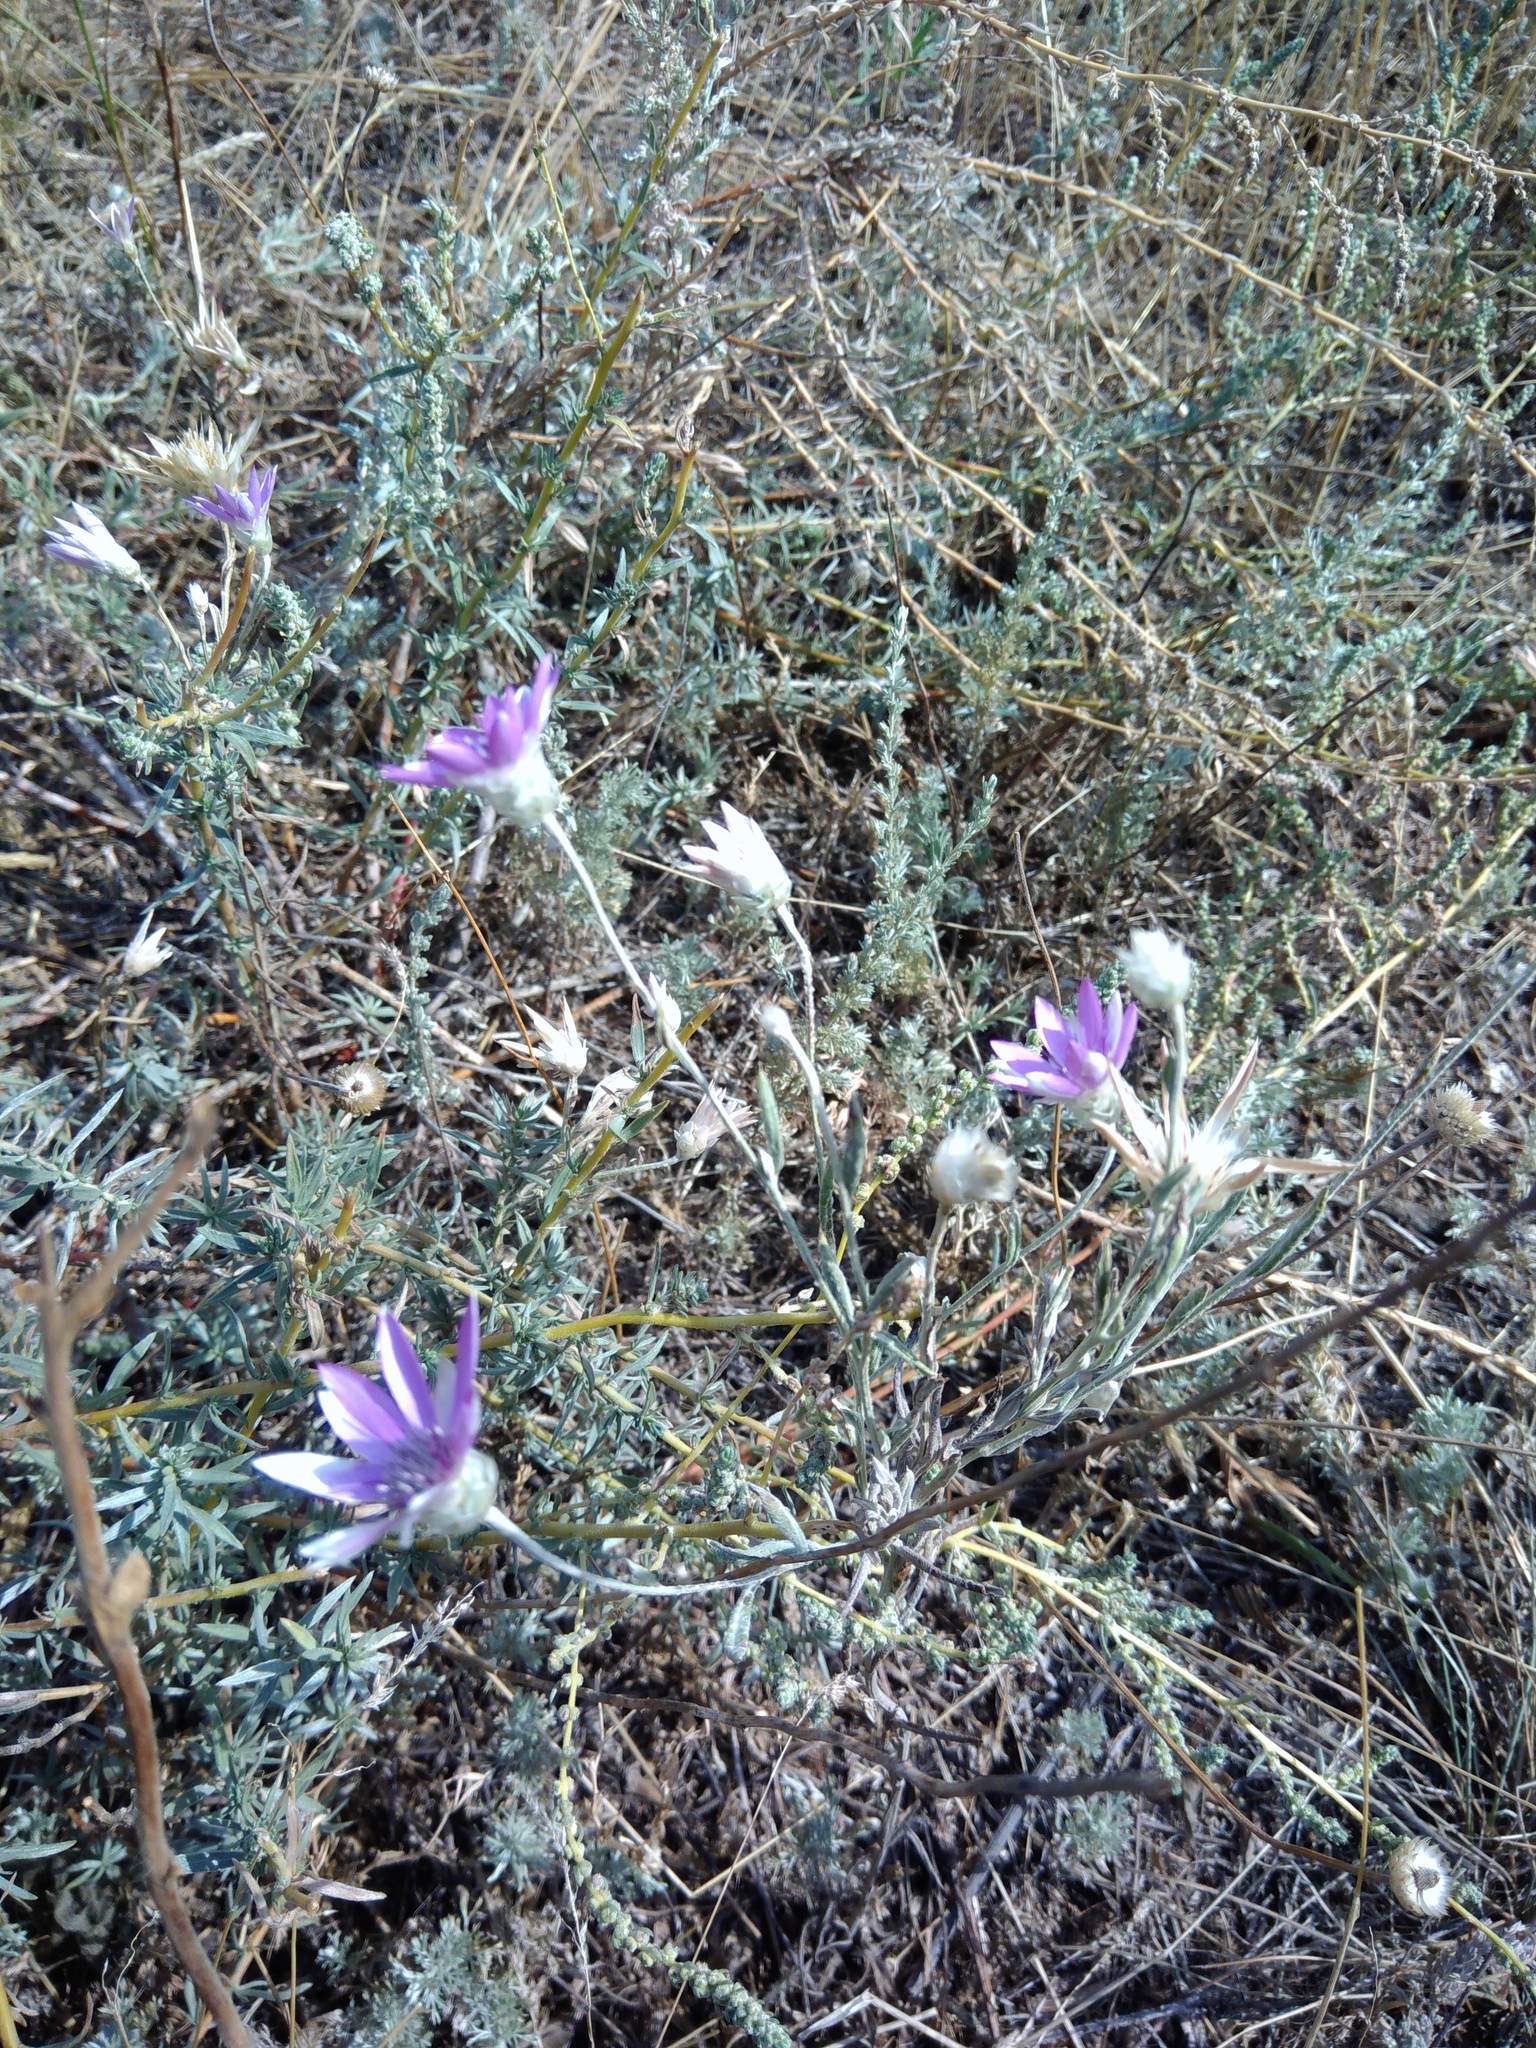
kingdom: Plantae
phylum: Tracheophyta
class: Magnoliopsida
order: Asterales
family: Asteraceae
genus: Xeranthemum
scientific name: Xeranthemum annuum
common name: Immortelle
